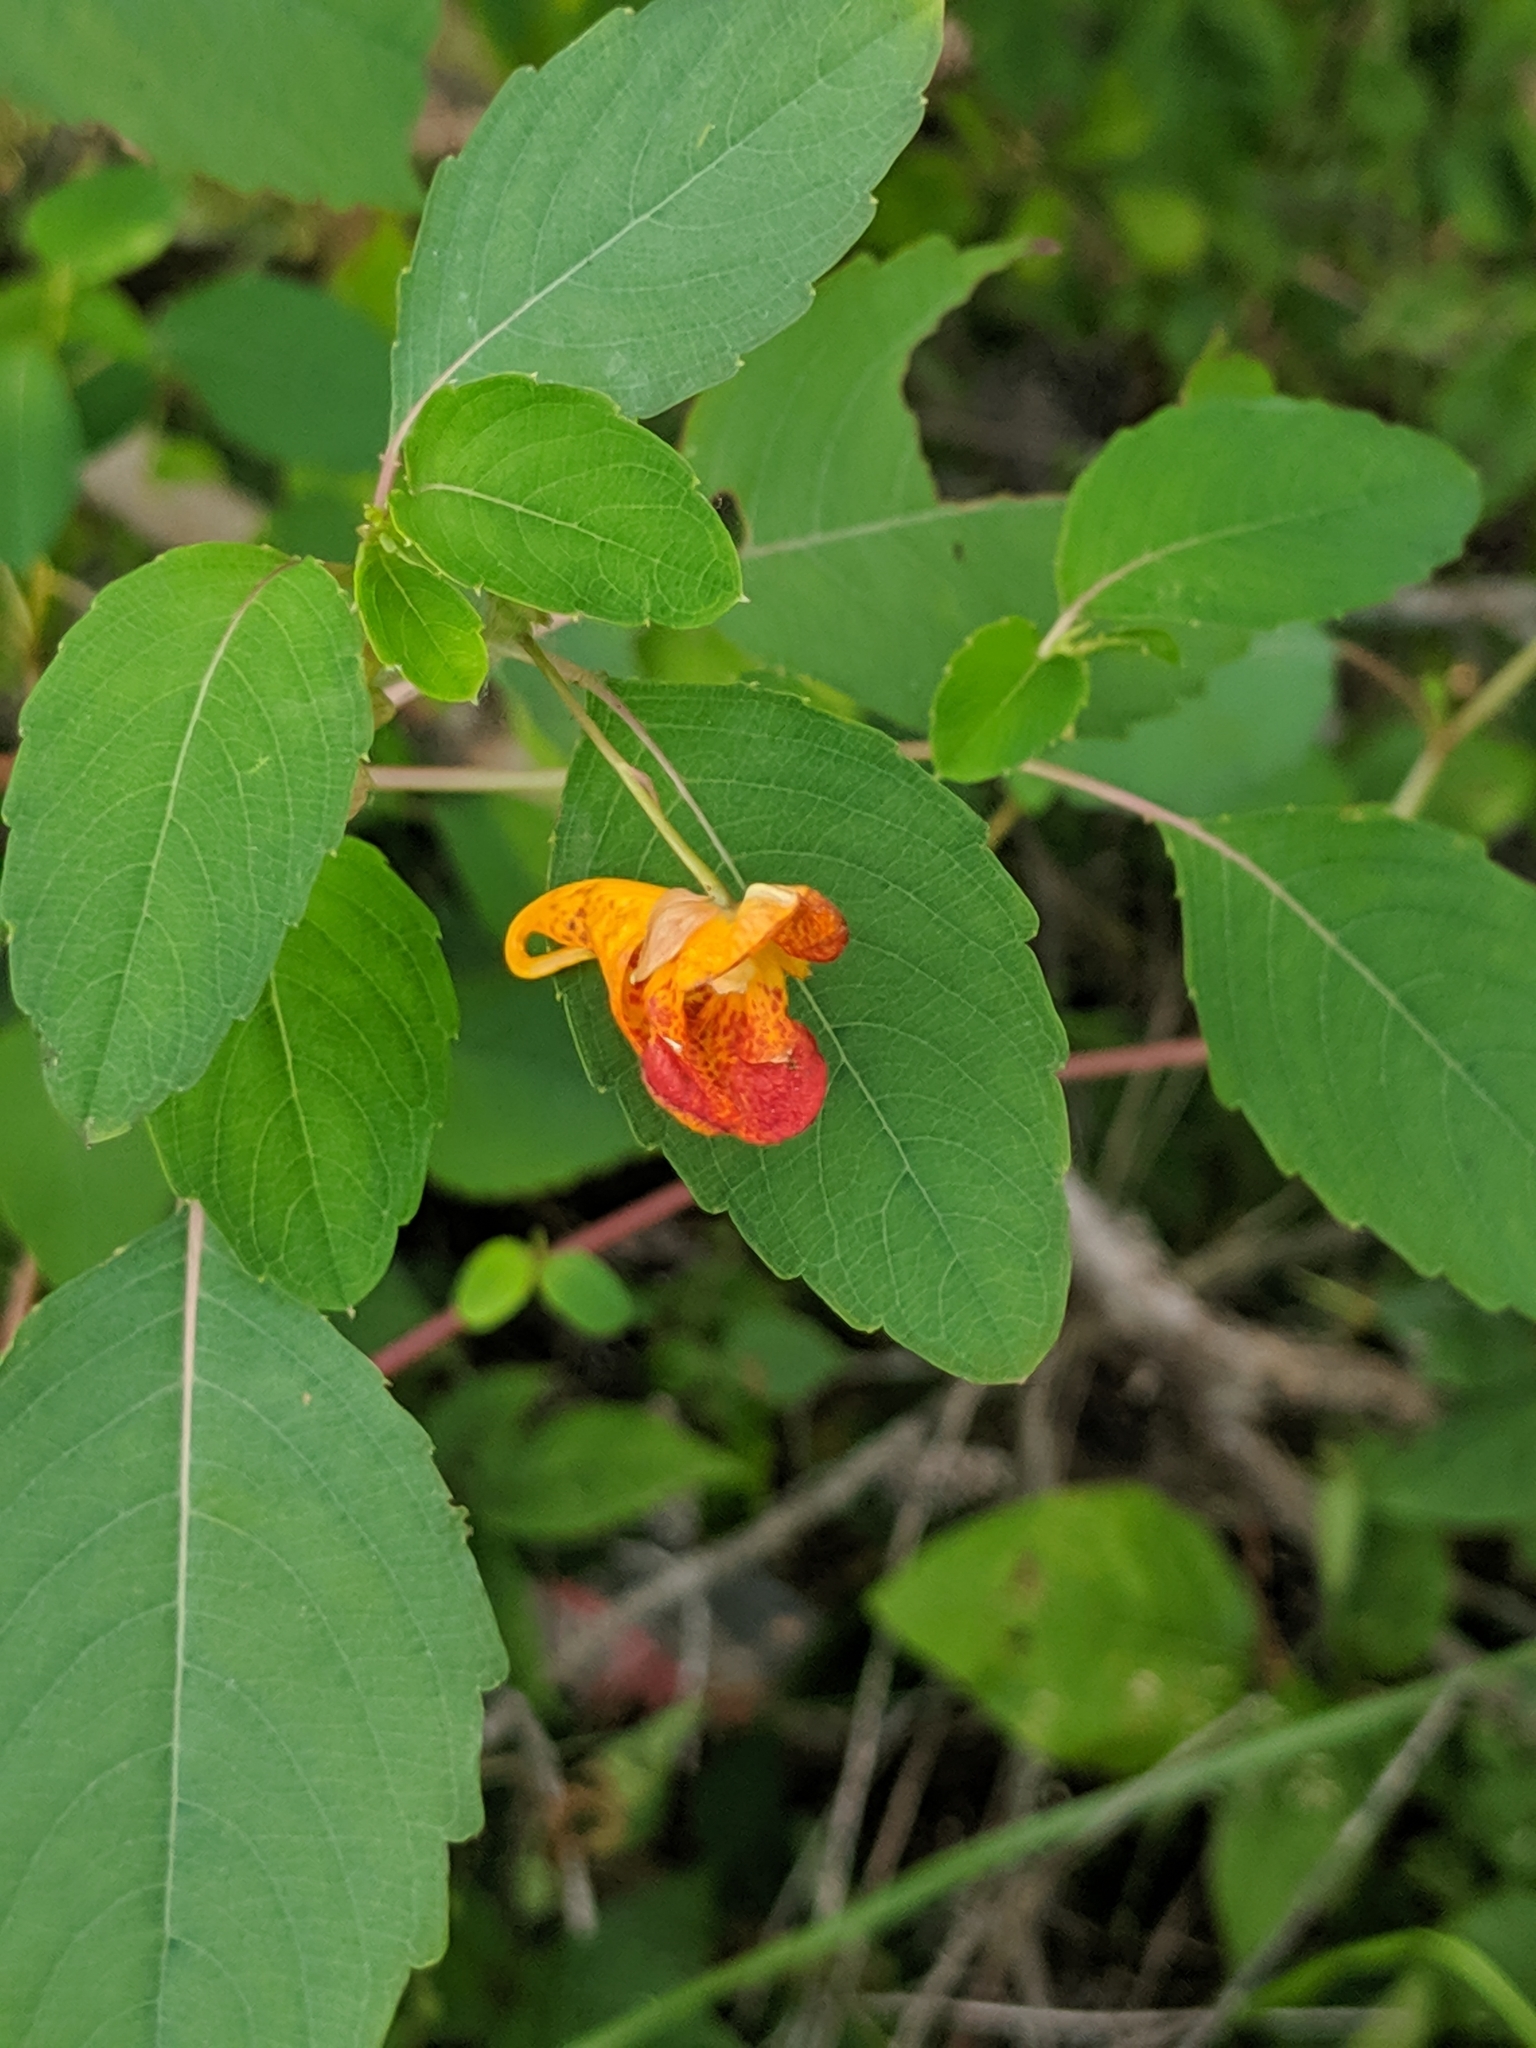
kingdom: Plantae
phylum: Tracheophyta
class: Magnoliopsida
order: Ericales
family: Balsaminaceae
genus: Impatiens
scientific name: Impatiens capensis
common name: Orange balsam
